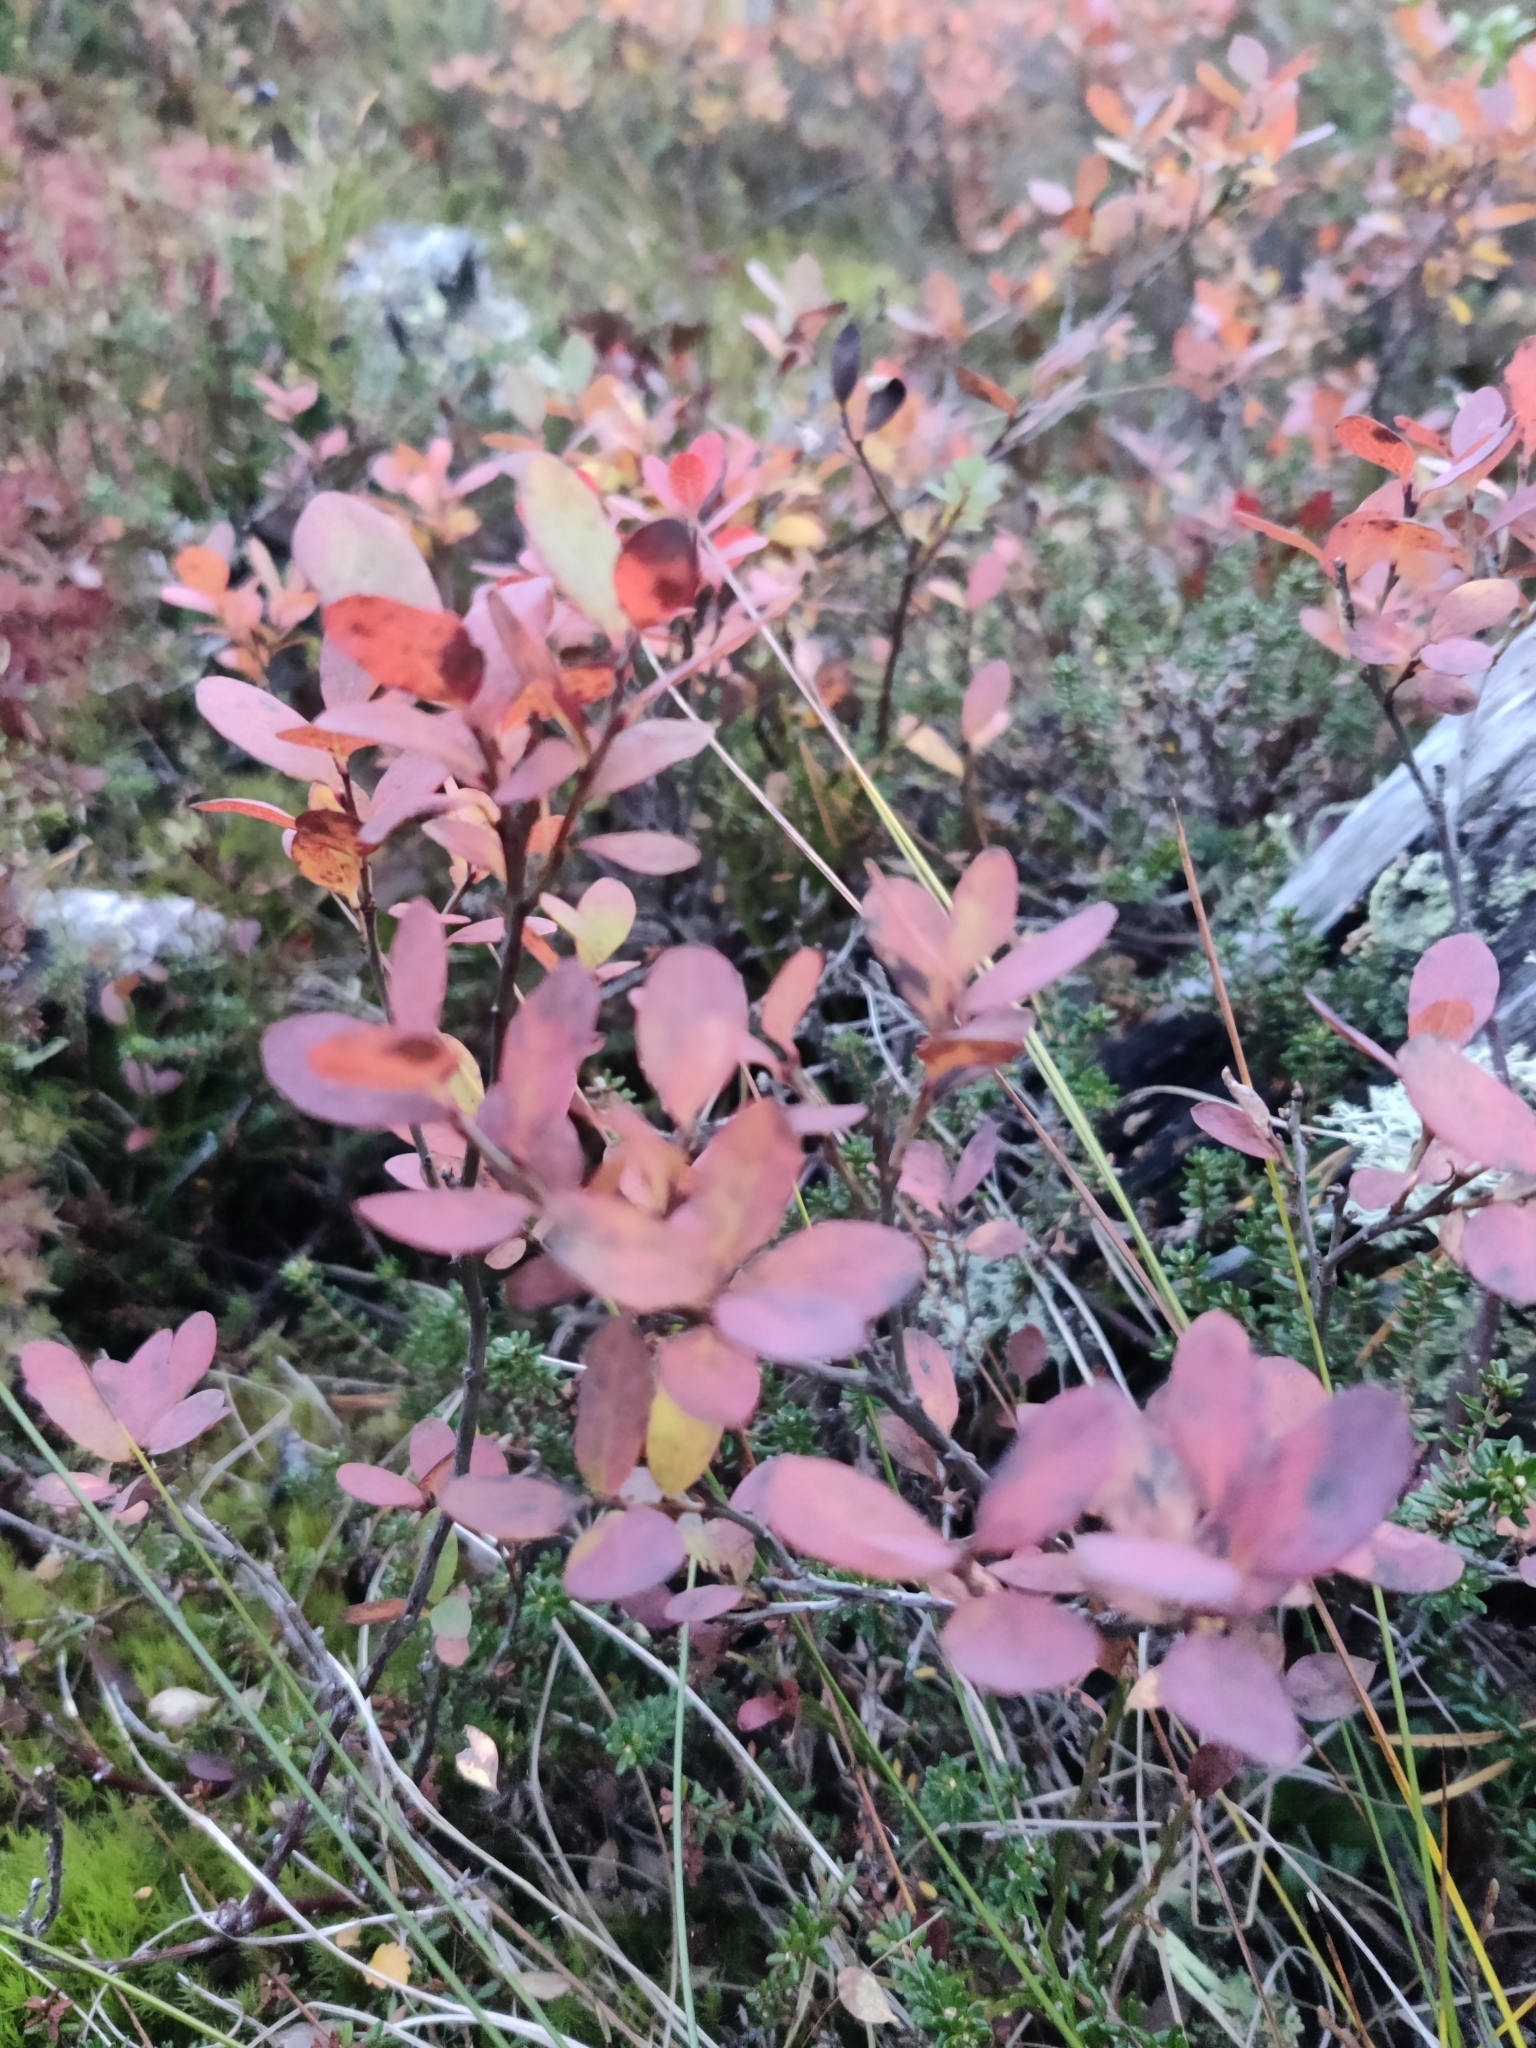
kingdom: Plantae
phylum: Tracheophyta
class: Magnoliopsida
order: Ericales
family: Ericaceae
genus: Vaccinium
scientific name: Vaccinium uliginosum
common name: Bog bilberry
